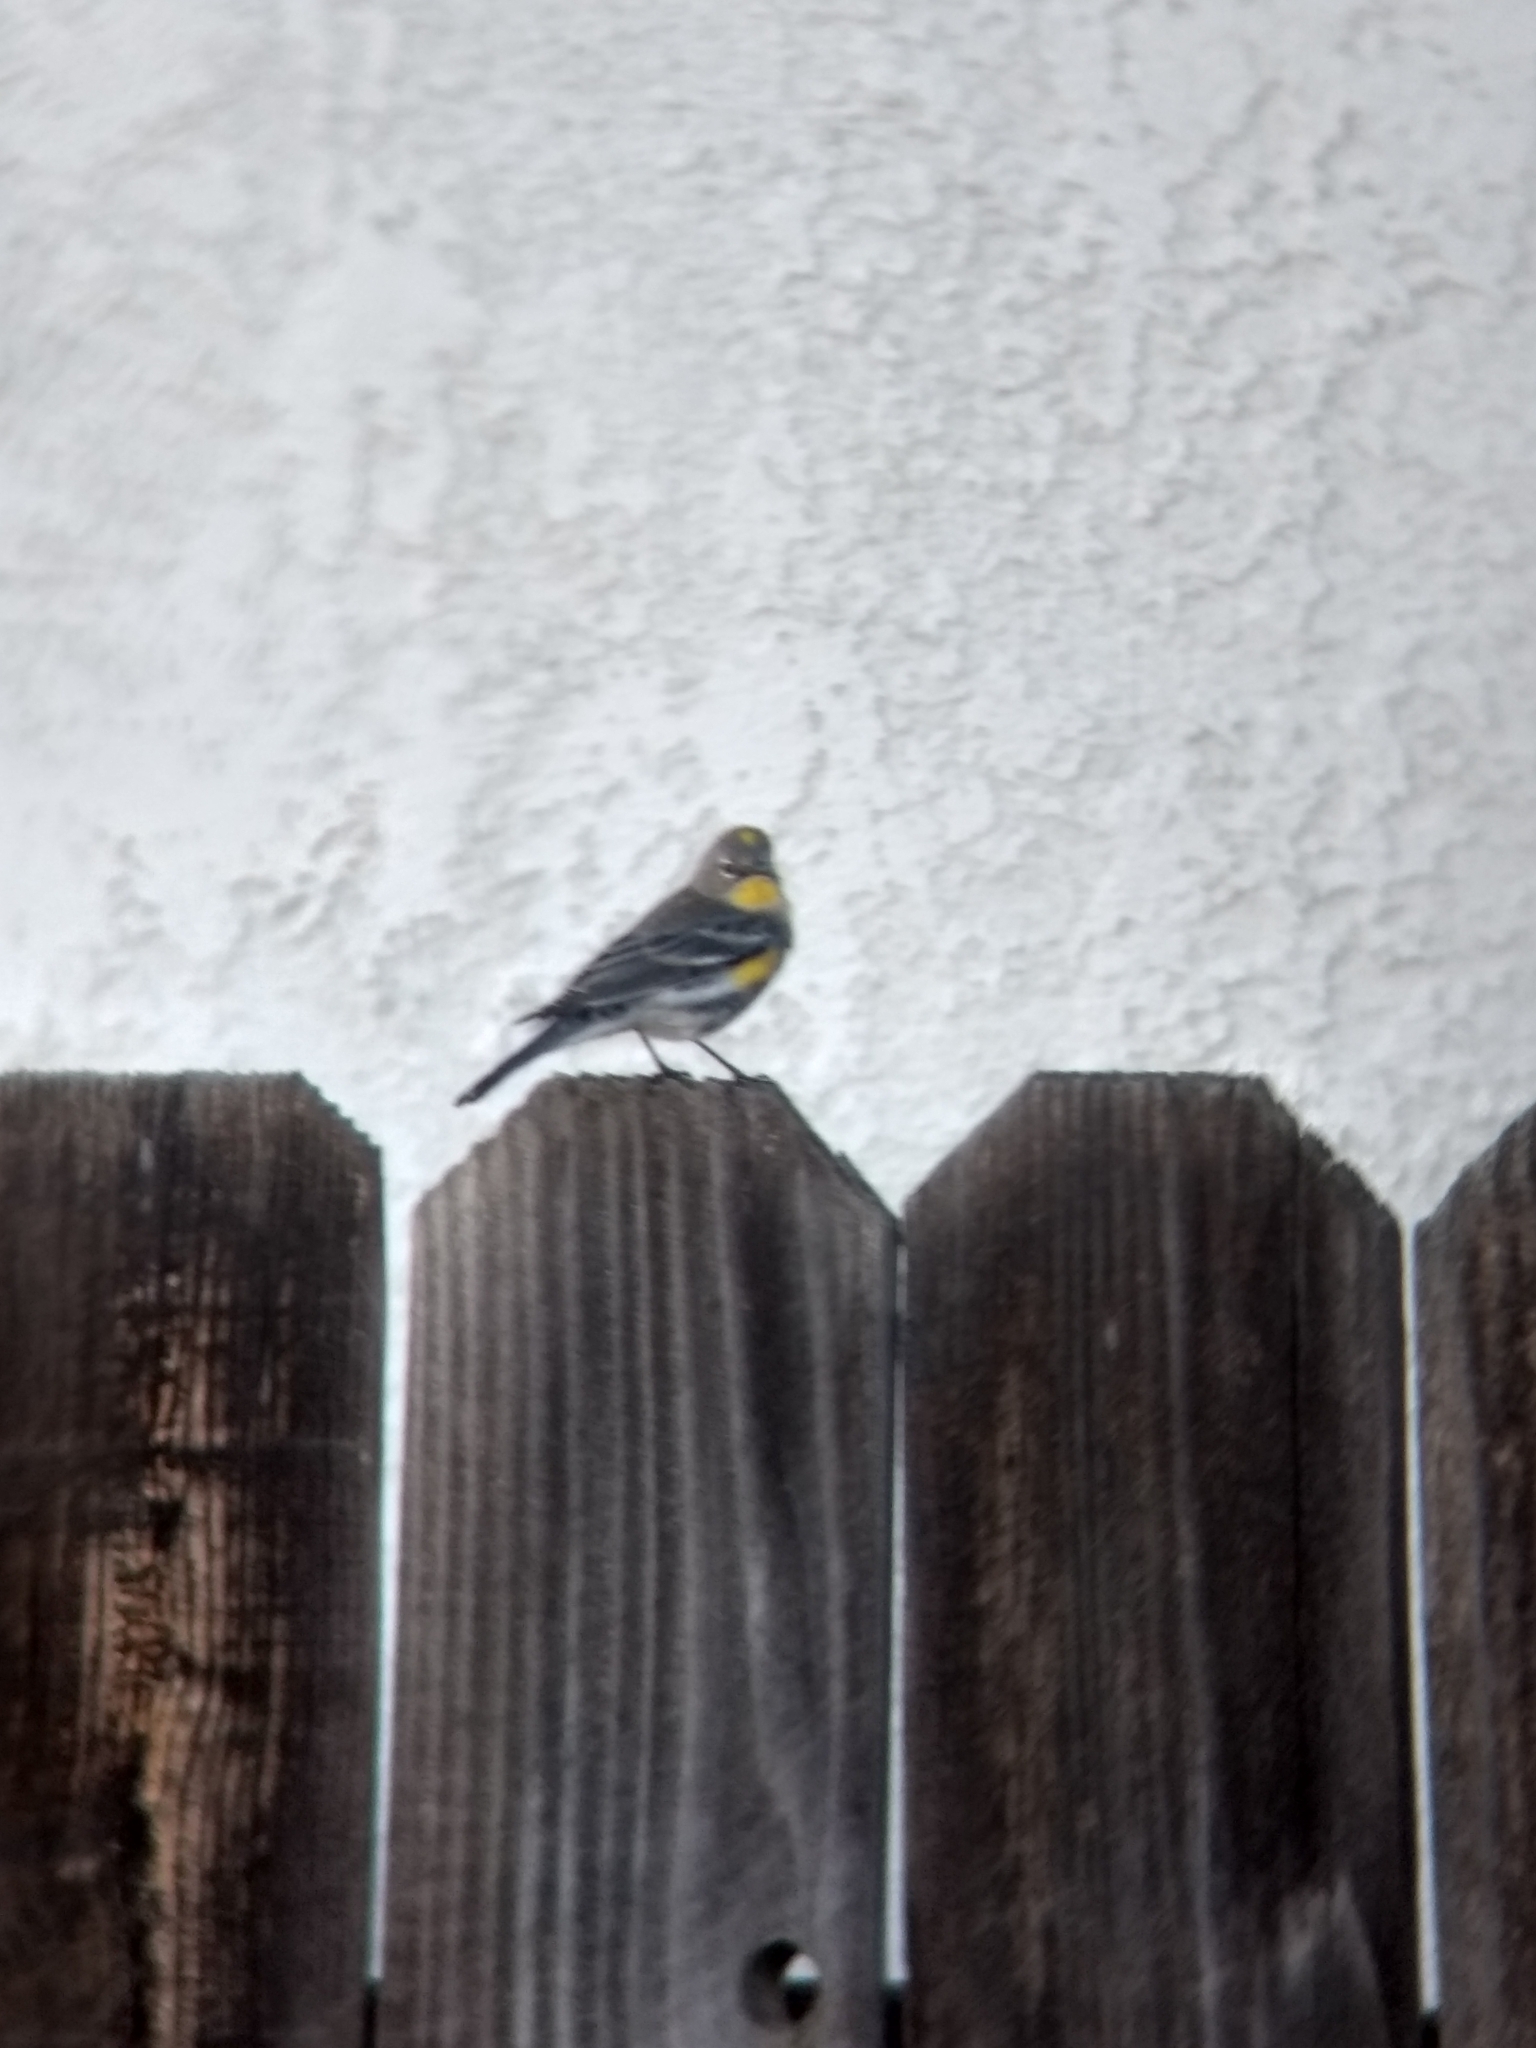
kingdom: Animalia
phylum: Chordata
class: Aves
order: Passeriformes
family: Parulidae
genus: Setophaga
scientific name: Setophaga coronata
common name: Myrtle warbler
